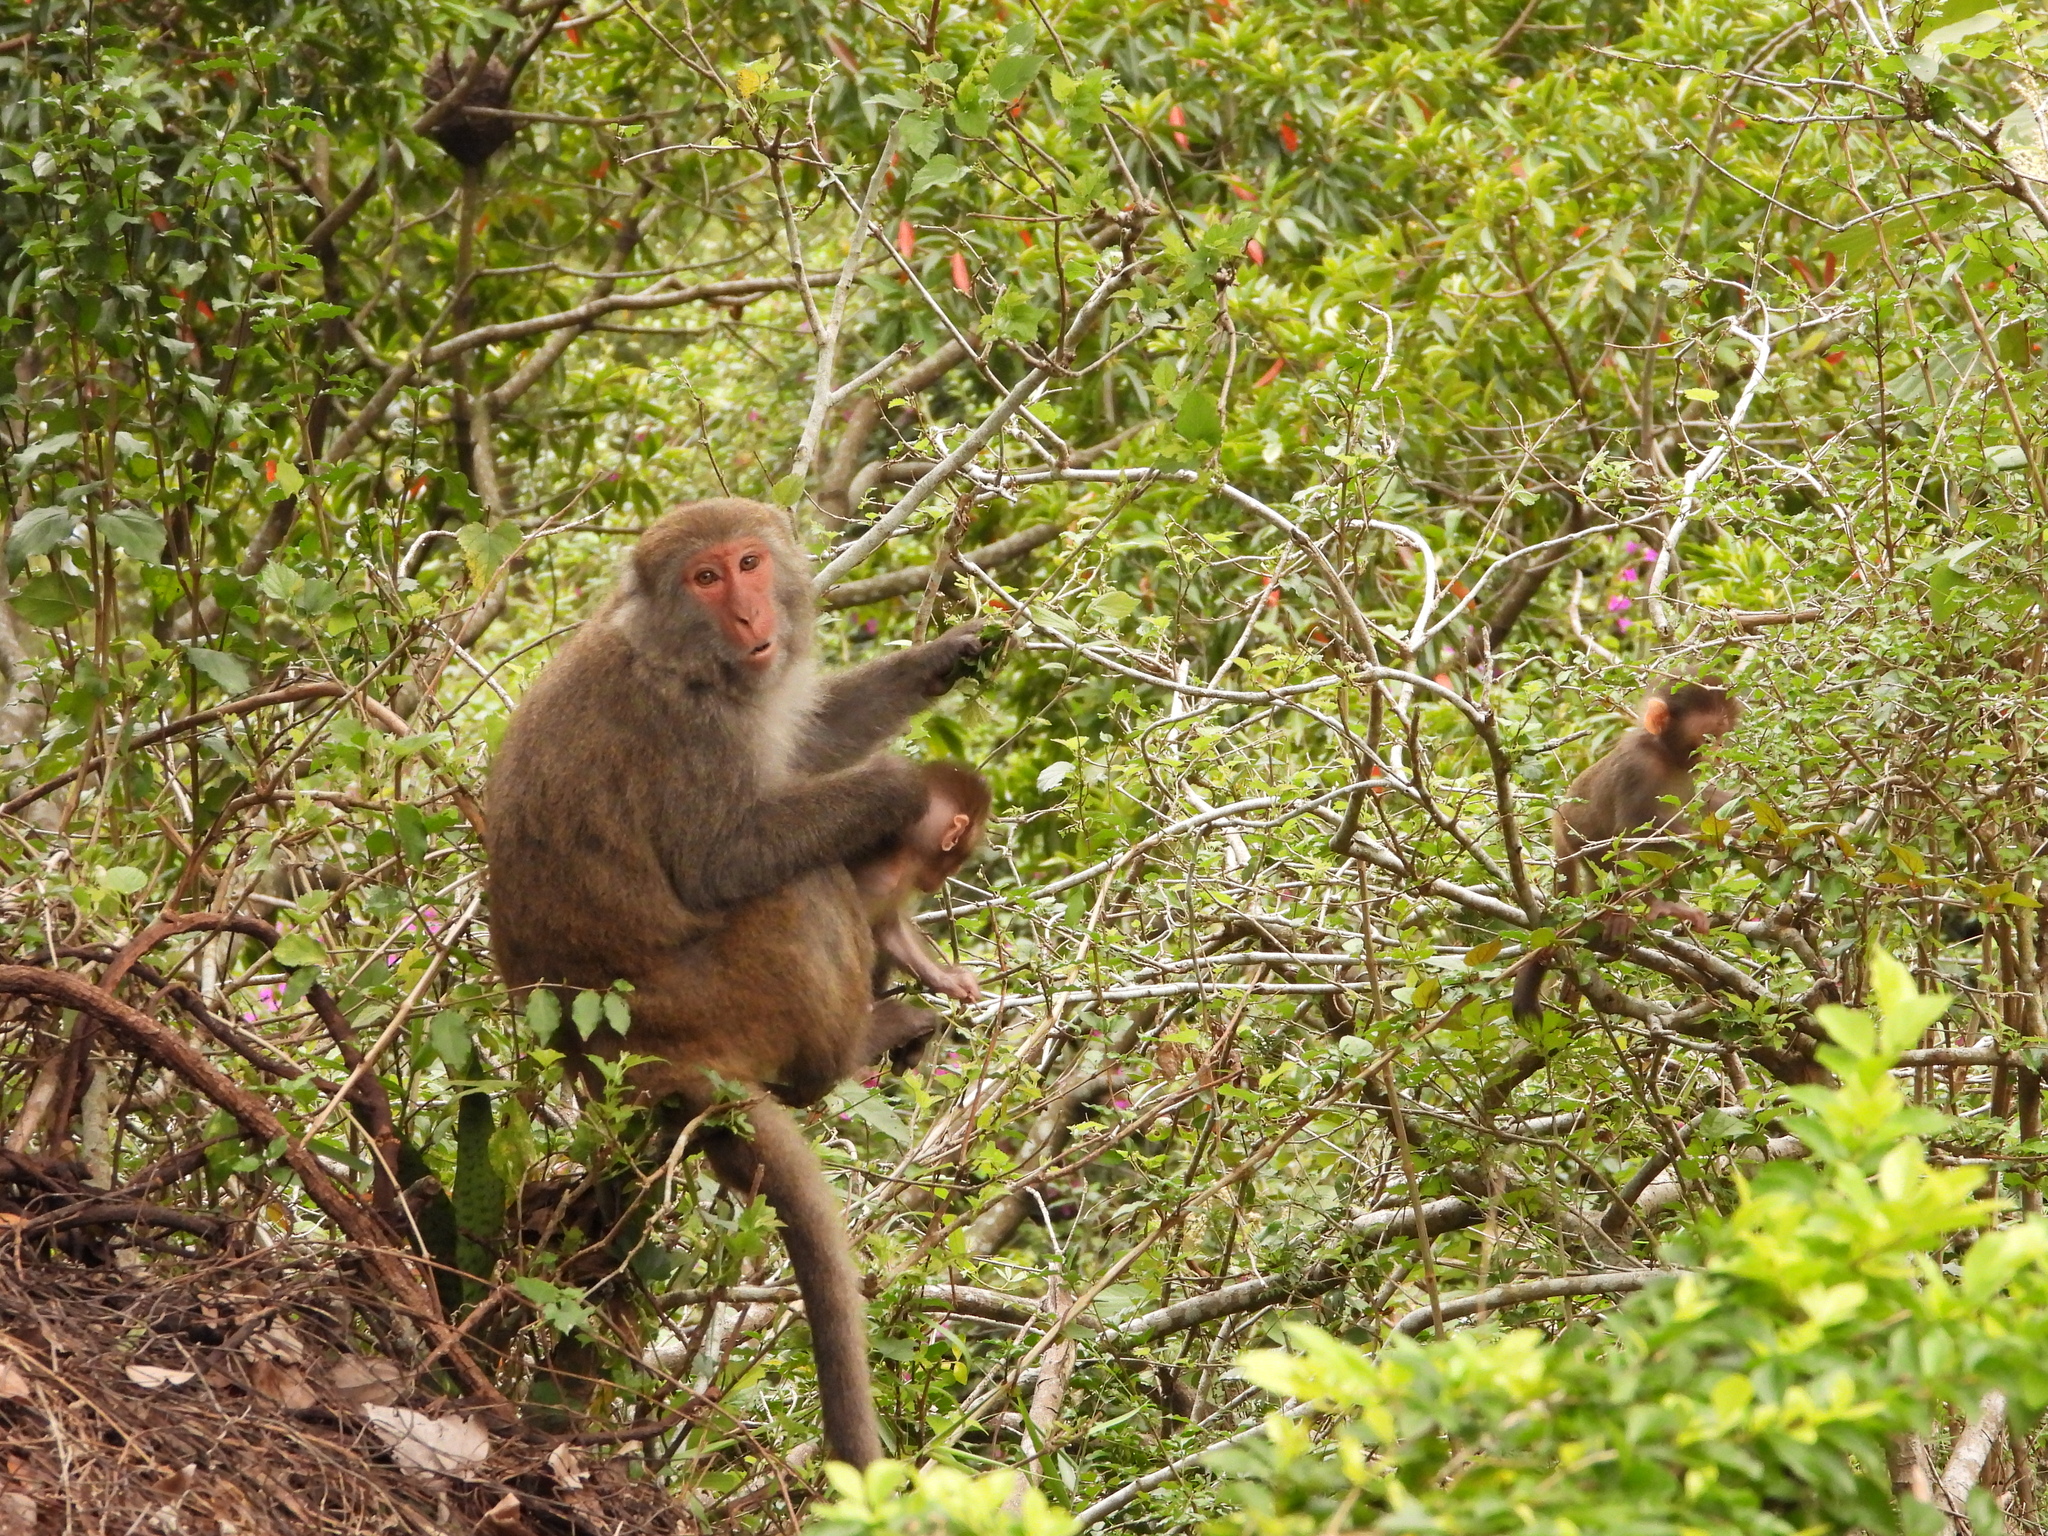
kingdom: Animalia
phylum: Chordata
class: Mammalia
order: Primates
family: Cercopithecidae
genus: Macaca
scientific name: Macaca cyclopis
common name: Formosan rock macaque
